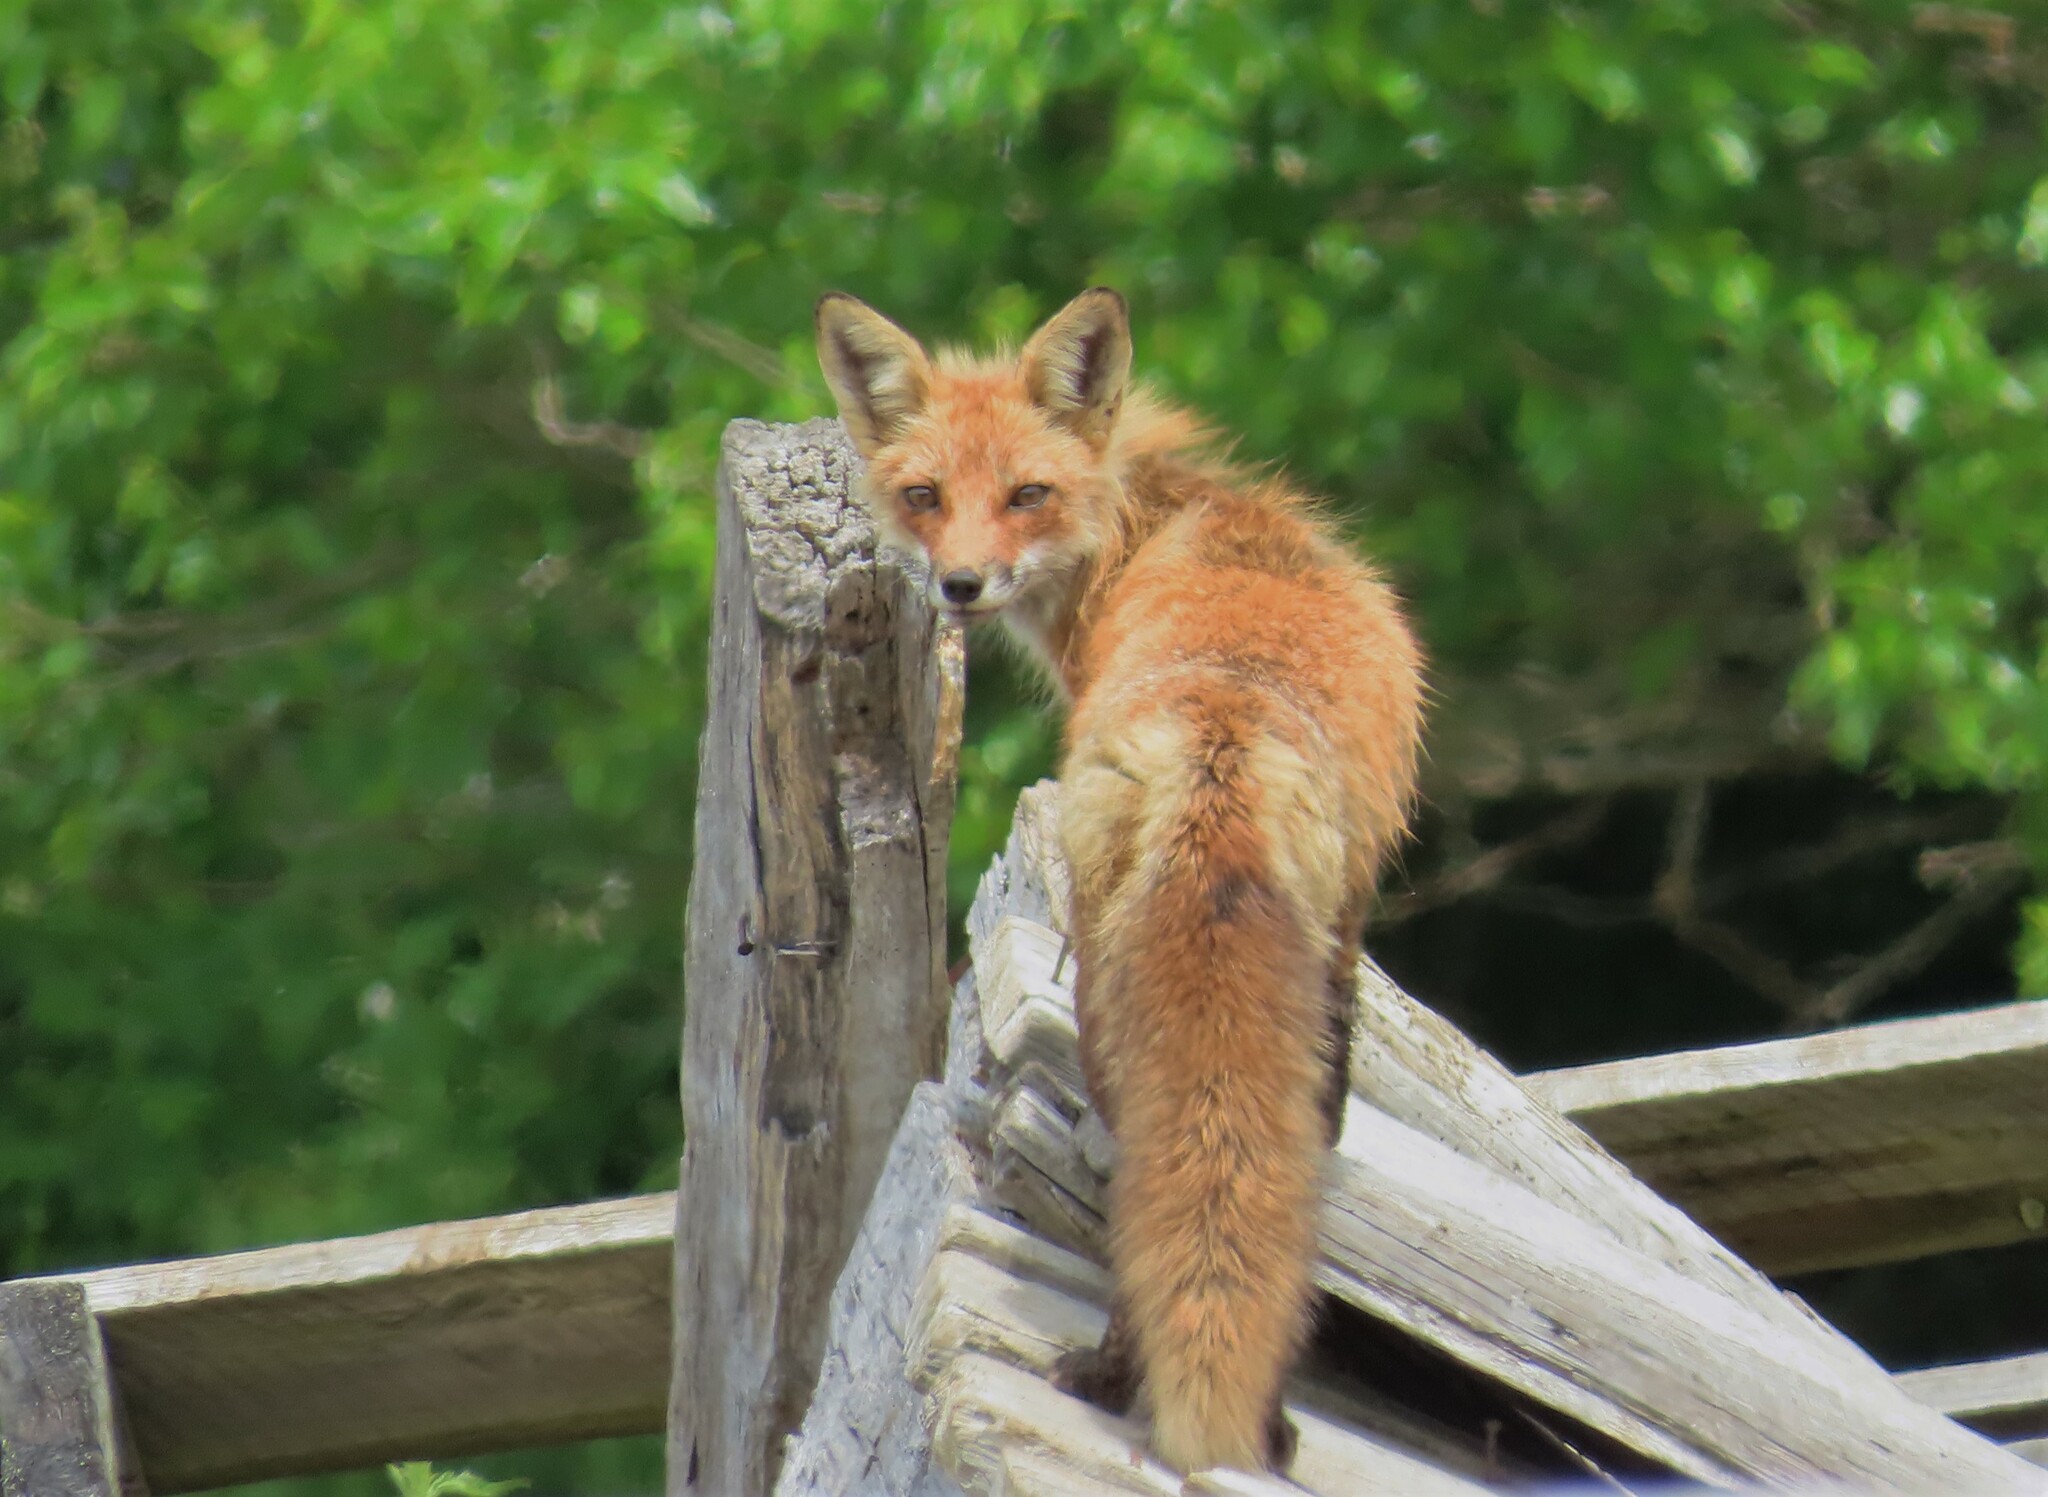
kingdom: Animalia
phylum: Chordata
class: Mammalia
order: Carnivora
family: Canidae
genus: Vulpes
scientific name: Vulpes vulpes
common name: Red fox
